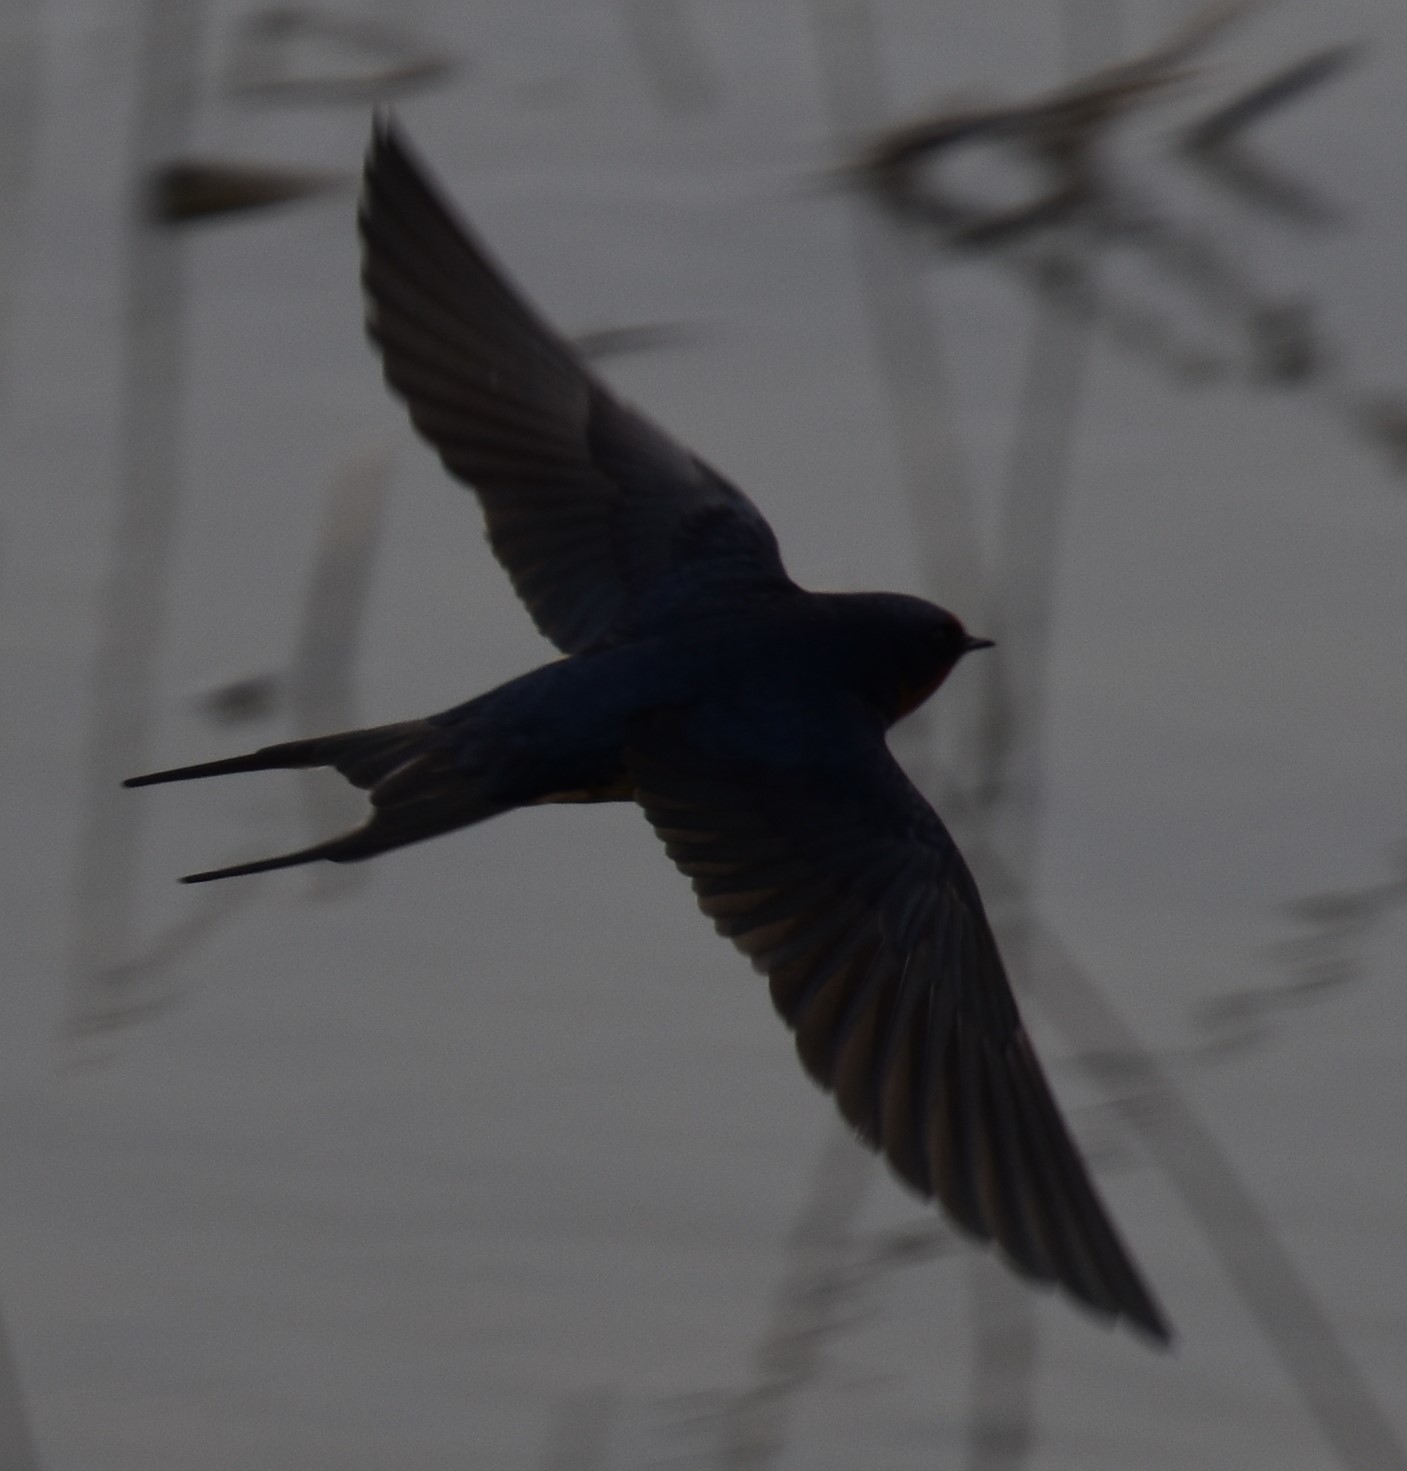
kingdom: Animalia
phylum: Chordata
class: Aves
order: Passeriformes
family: Hirundinidae
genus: Hirundo
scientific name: Hirundo rustica
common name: Barn swallow
